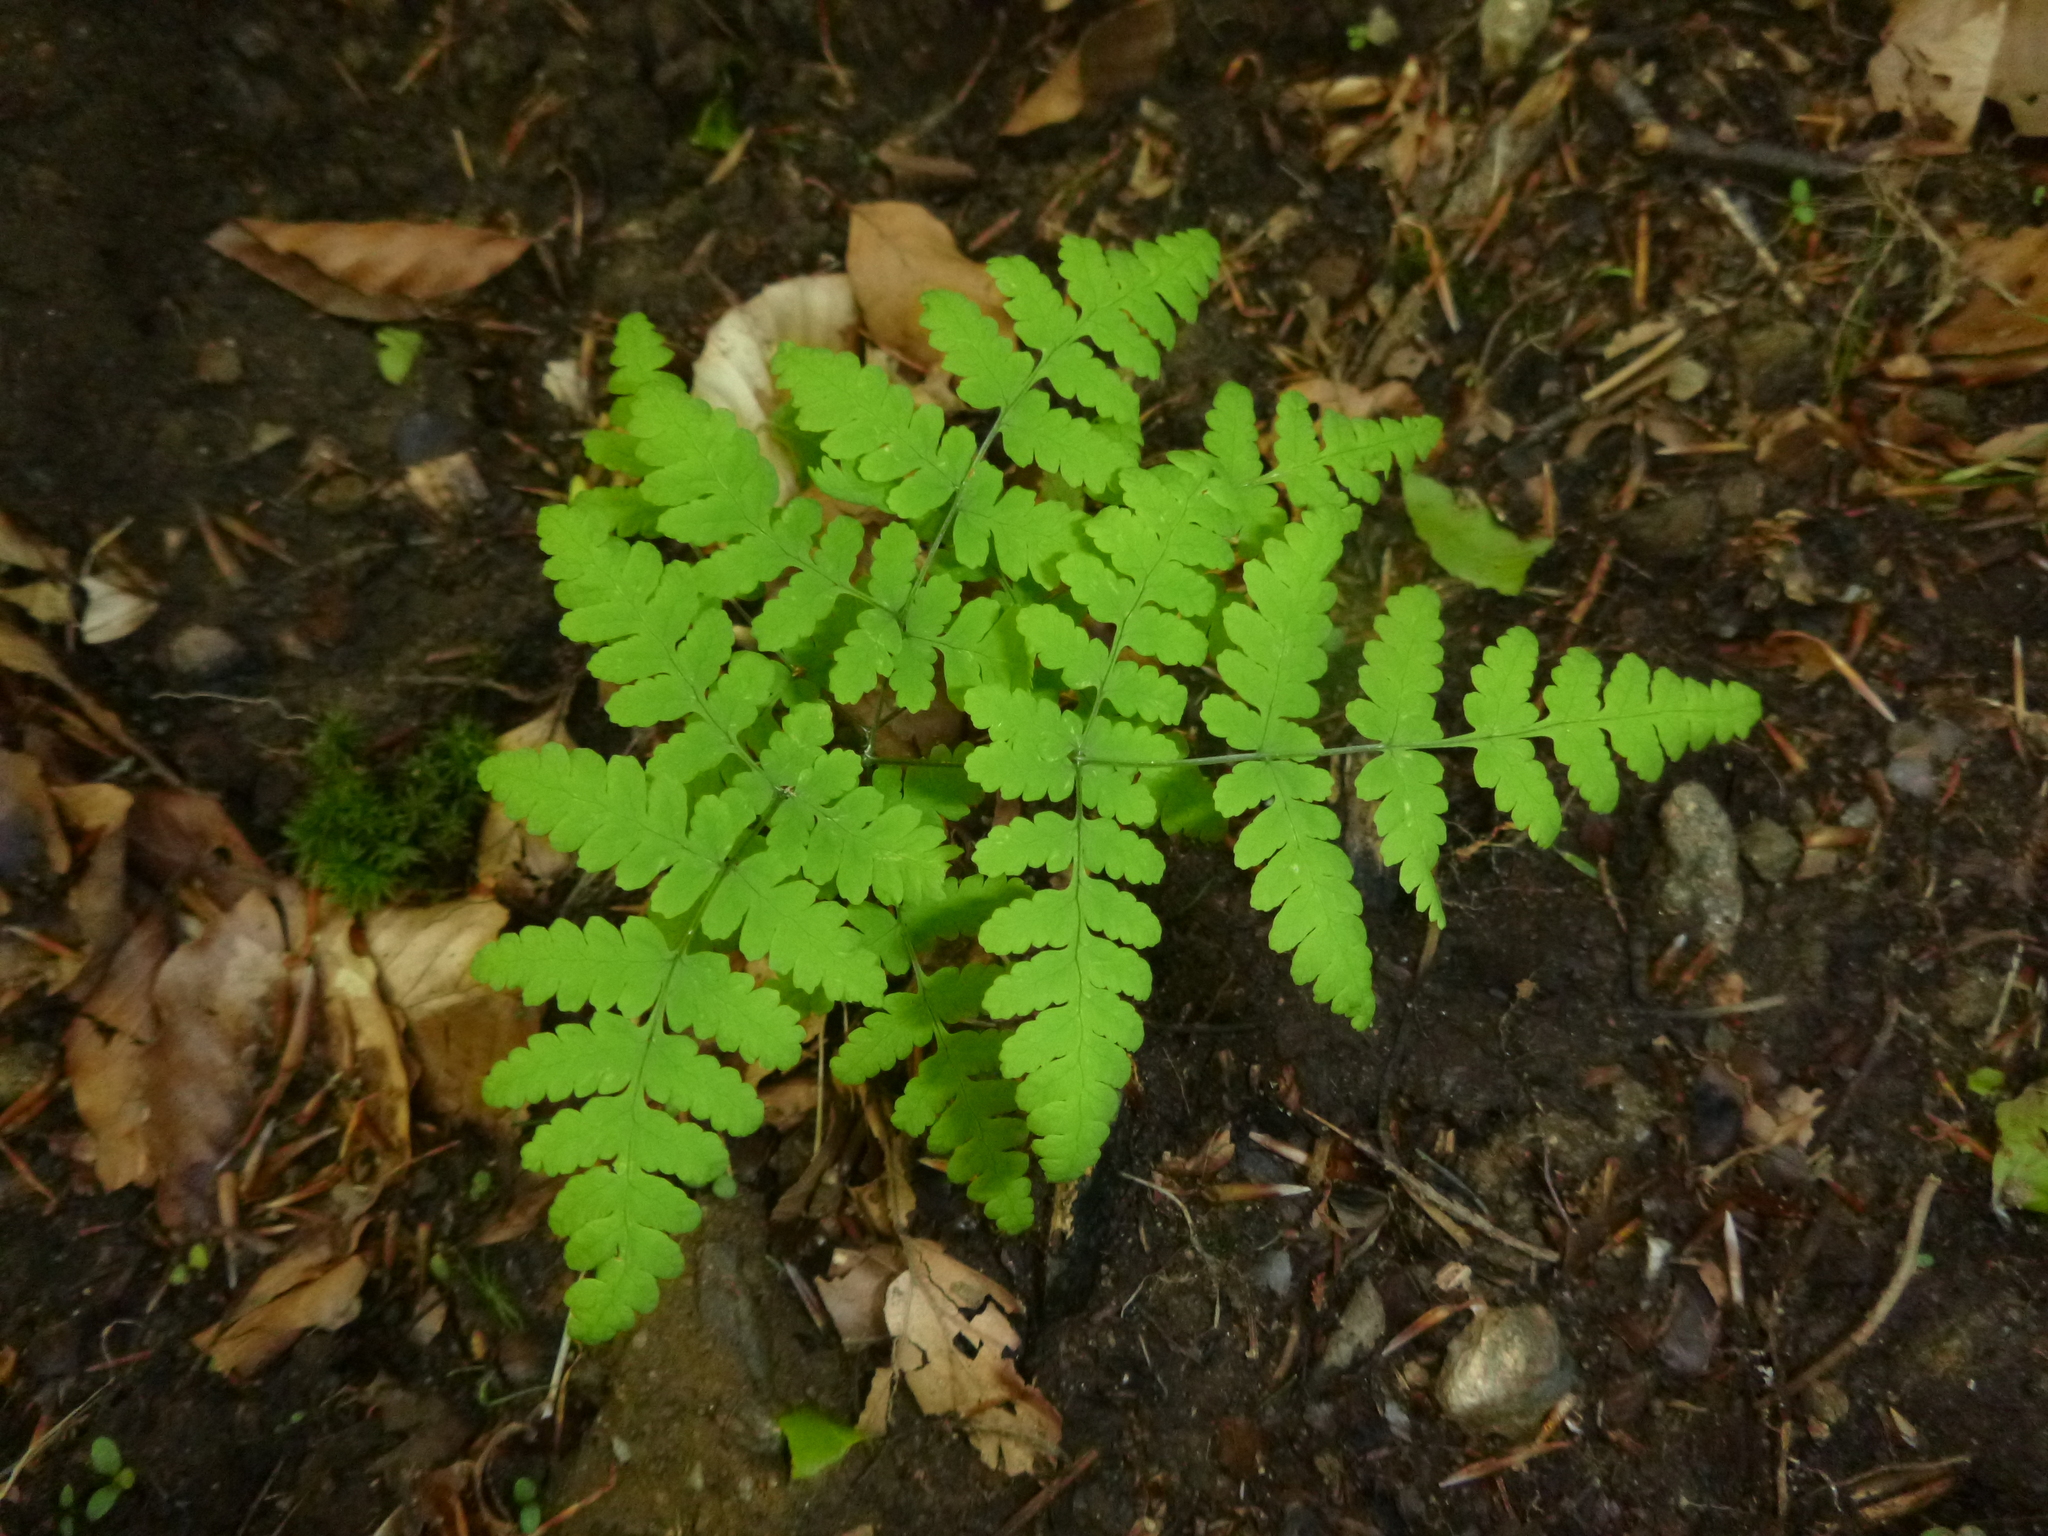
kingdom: Plantae
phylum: Tracheophyta
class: Polypodiopsida
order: Polypodiales
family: Cystopteridaceae
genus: Gymnocarpium
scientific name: Gymnocarpium dryopteris
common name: Oak fern
